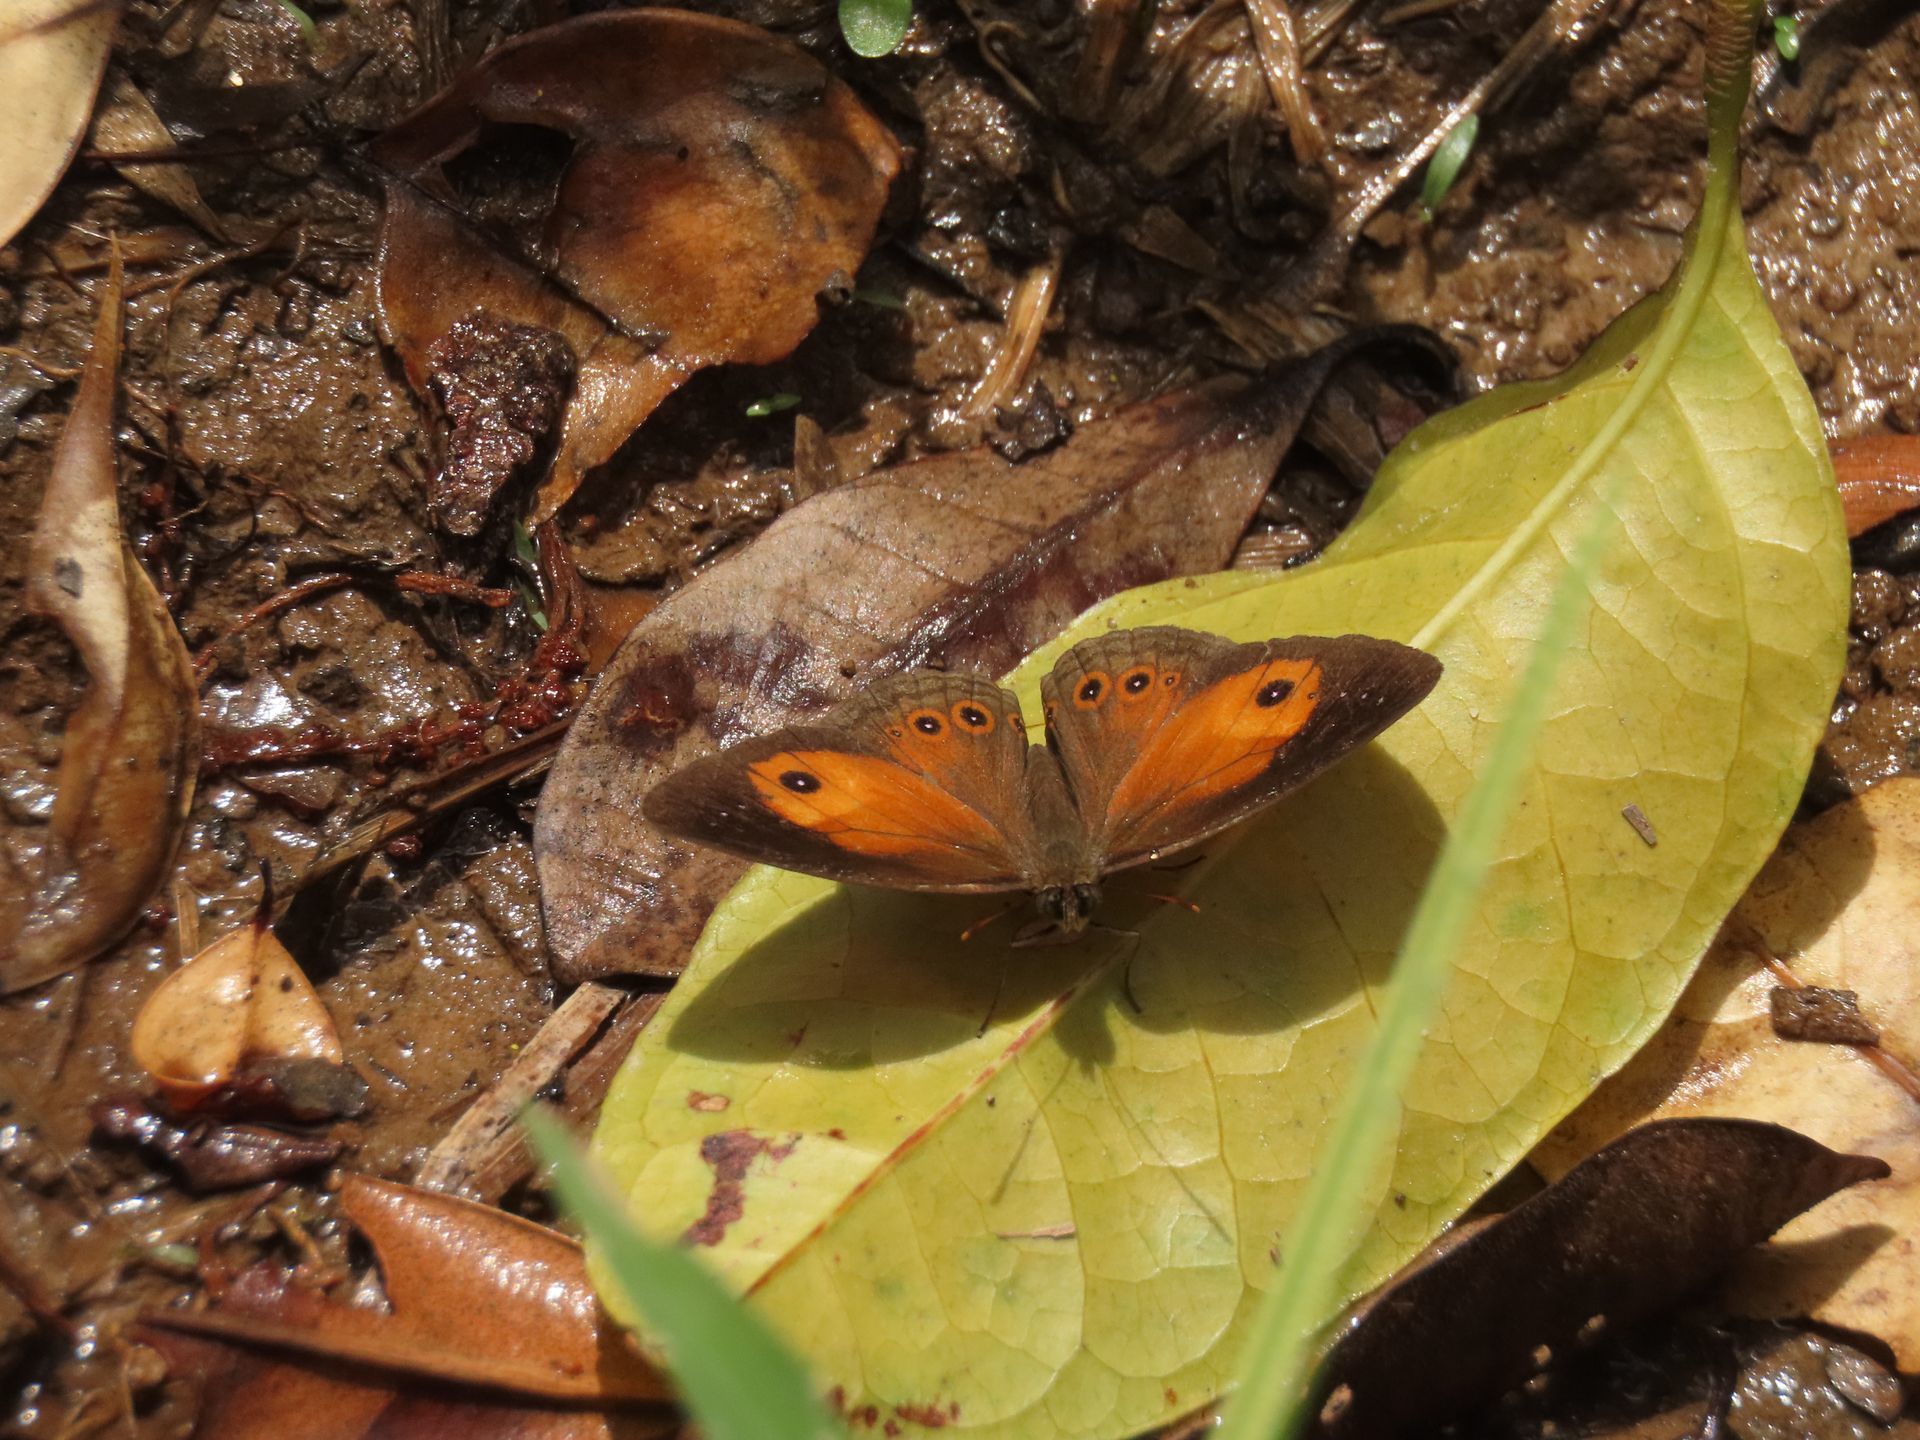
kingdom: Animalia
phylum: Arthropoda
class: Insecta
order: Lepidoptera
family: Nymphalidae
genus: Mycalesis
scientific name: Mycalesis terminus
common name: Orange bushbrown
